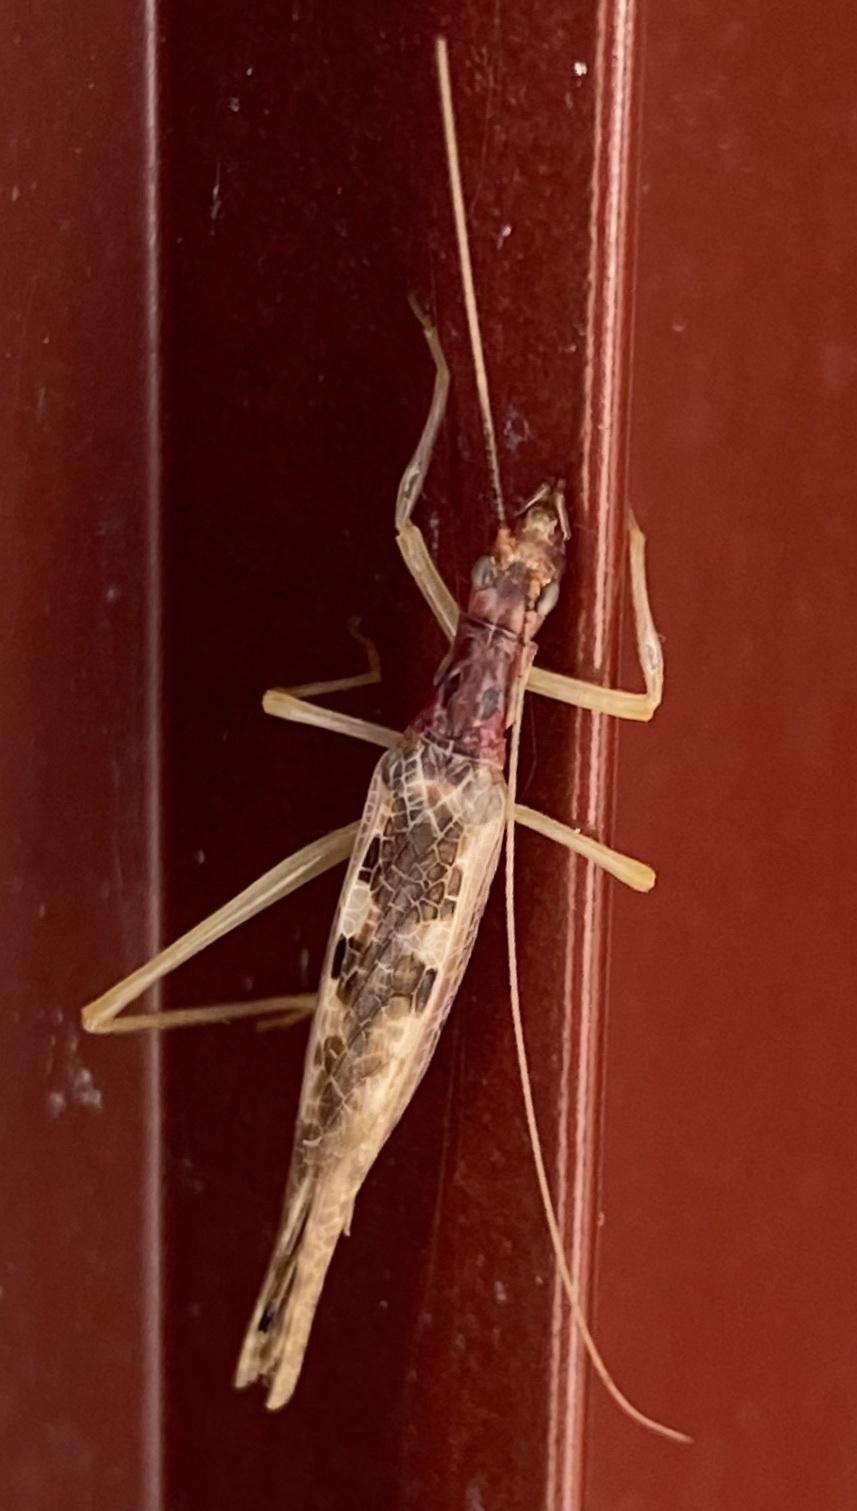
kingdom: Animalia
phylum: Arthropoda
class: Insecta
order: Orthoptera
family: Gryllidae
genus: Neoxabea
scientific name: Neoxabea bipunctata
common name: Two-spotted tree cricket
